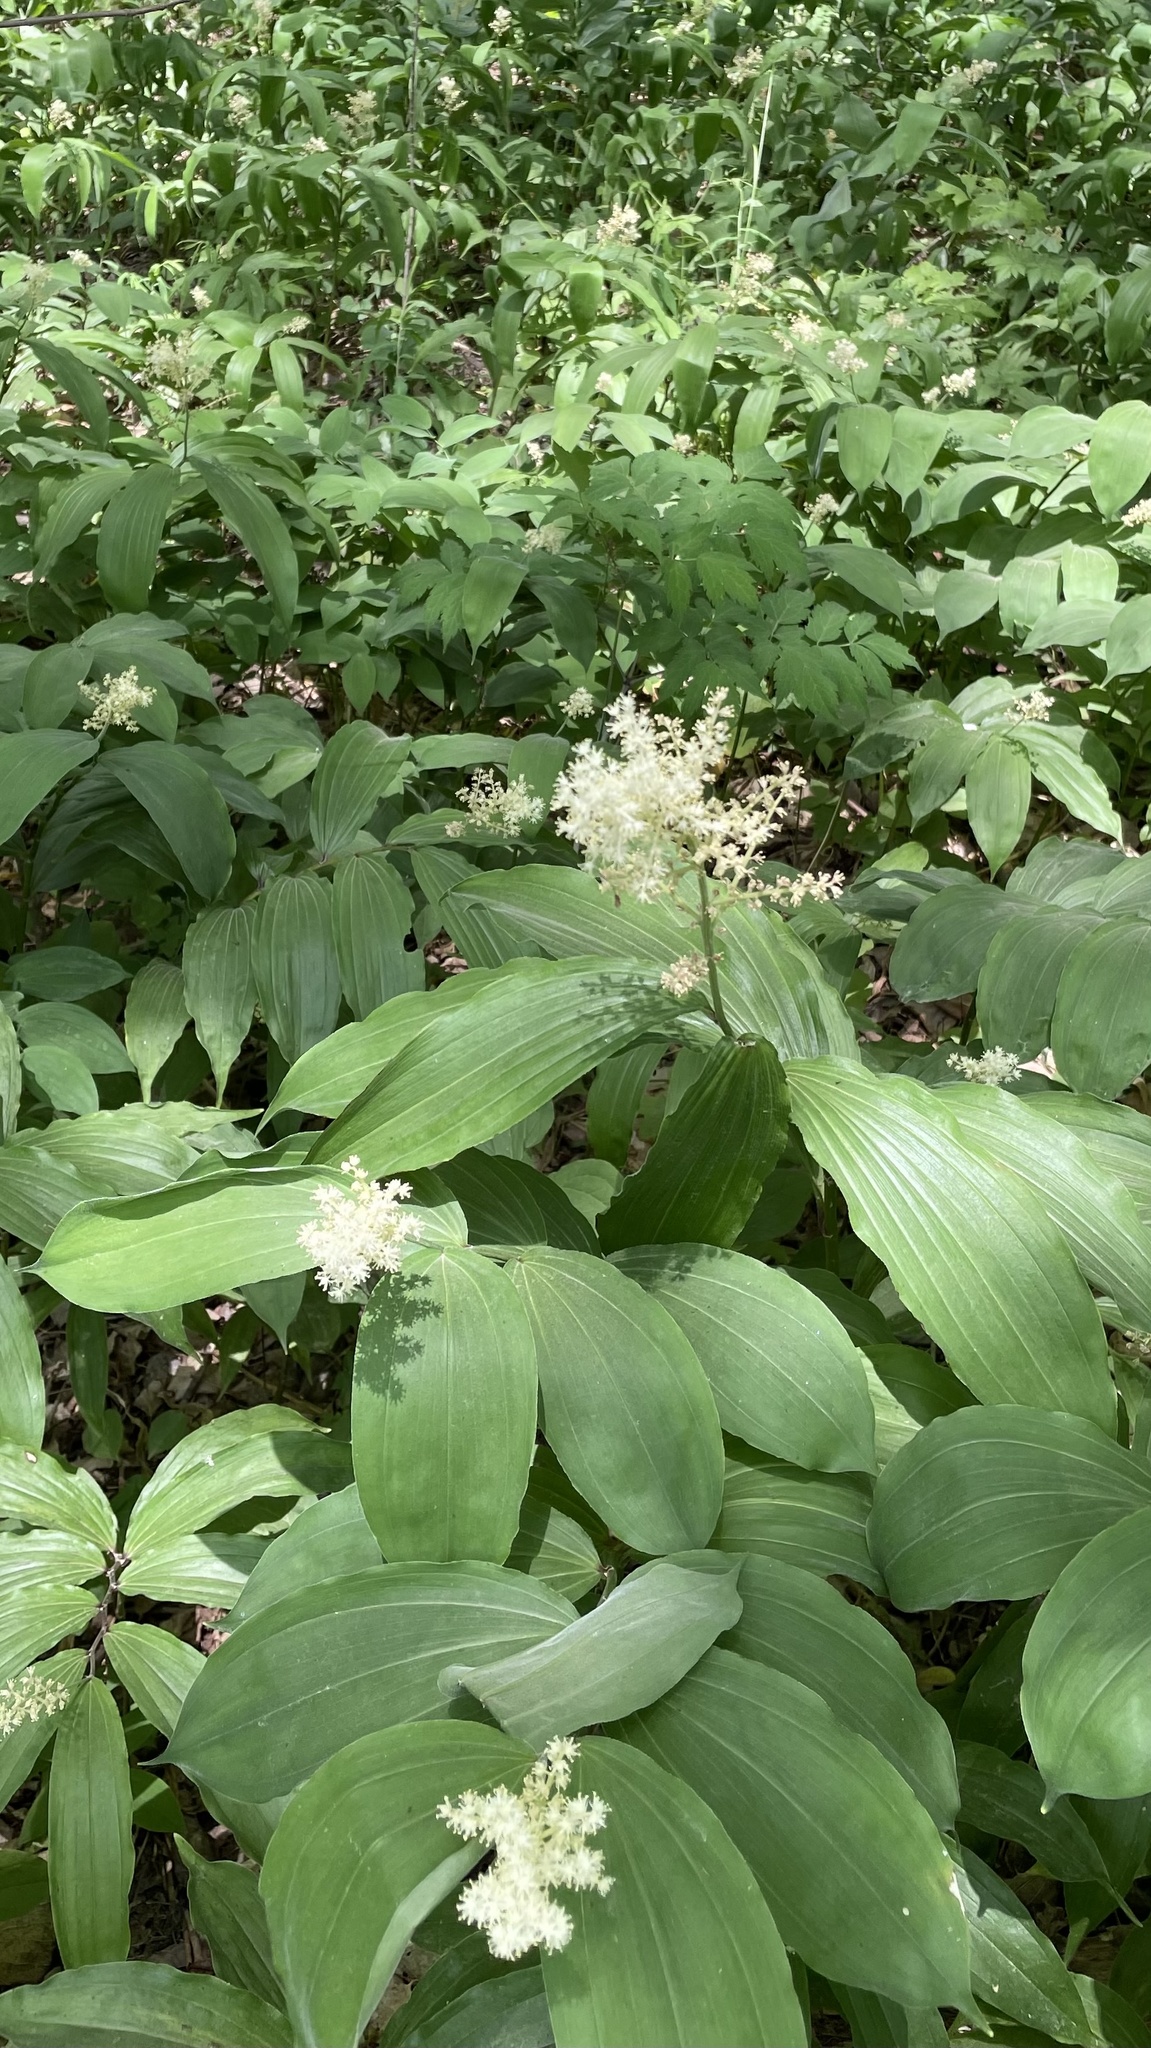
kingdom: Plantae
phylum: Tracheophyta
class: Liliopsida
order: Asparagales
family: Asparagaceae
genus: Maianthemum
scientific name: Maianthemum racemosum
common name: False spikenard
